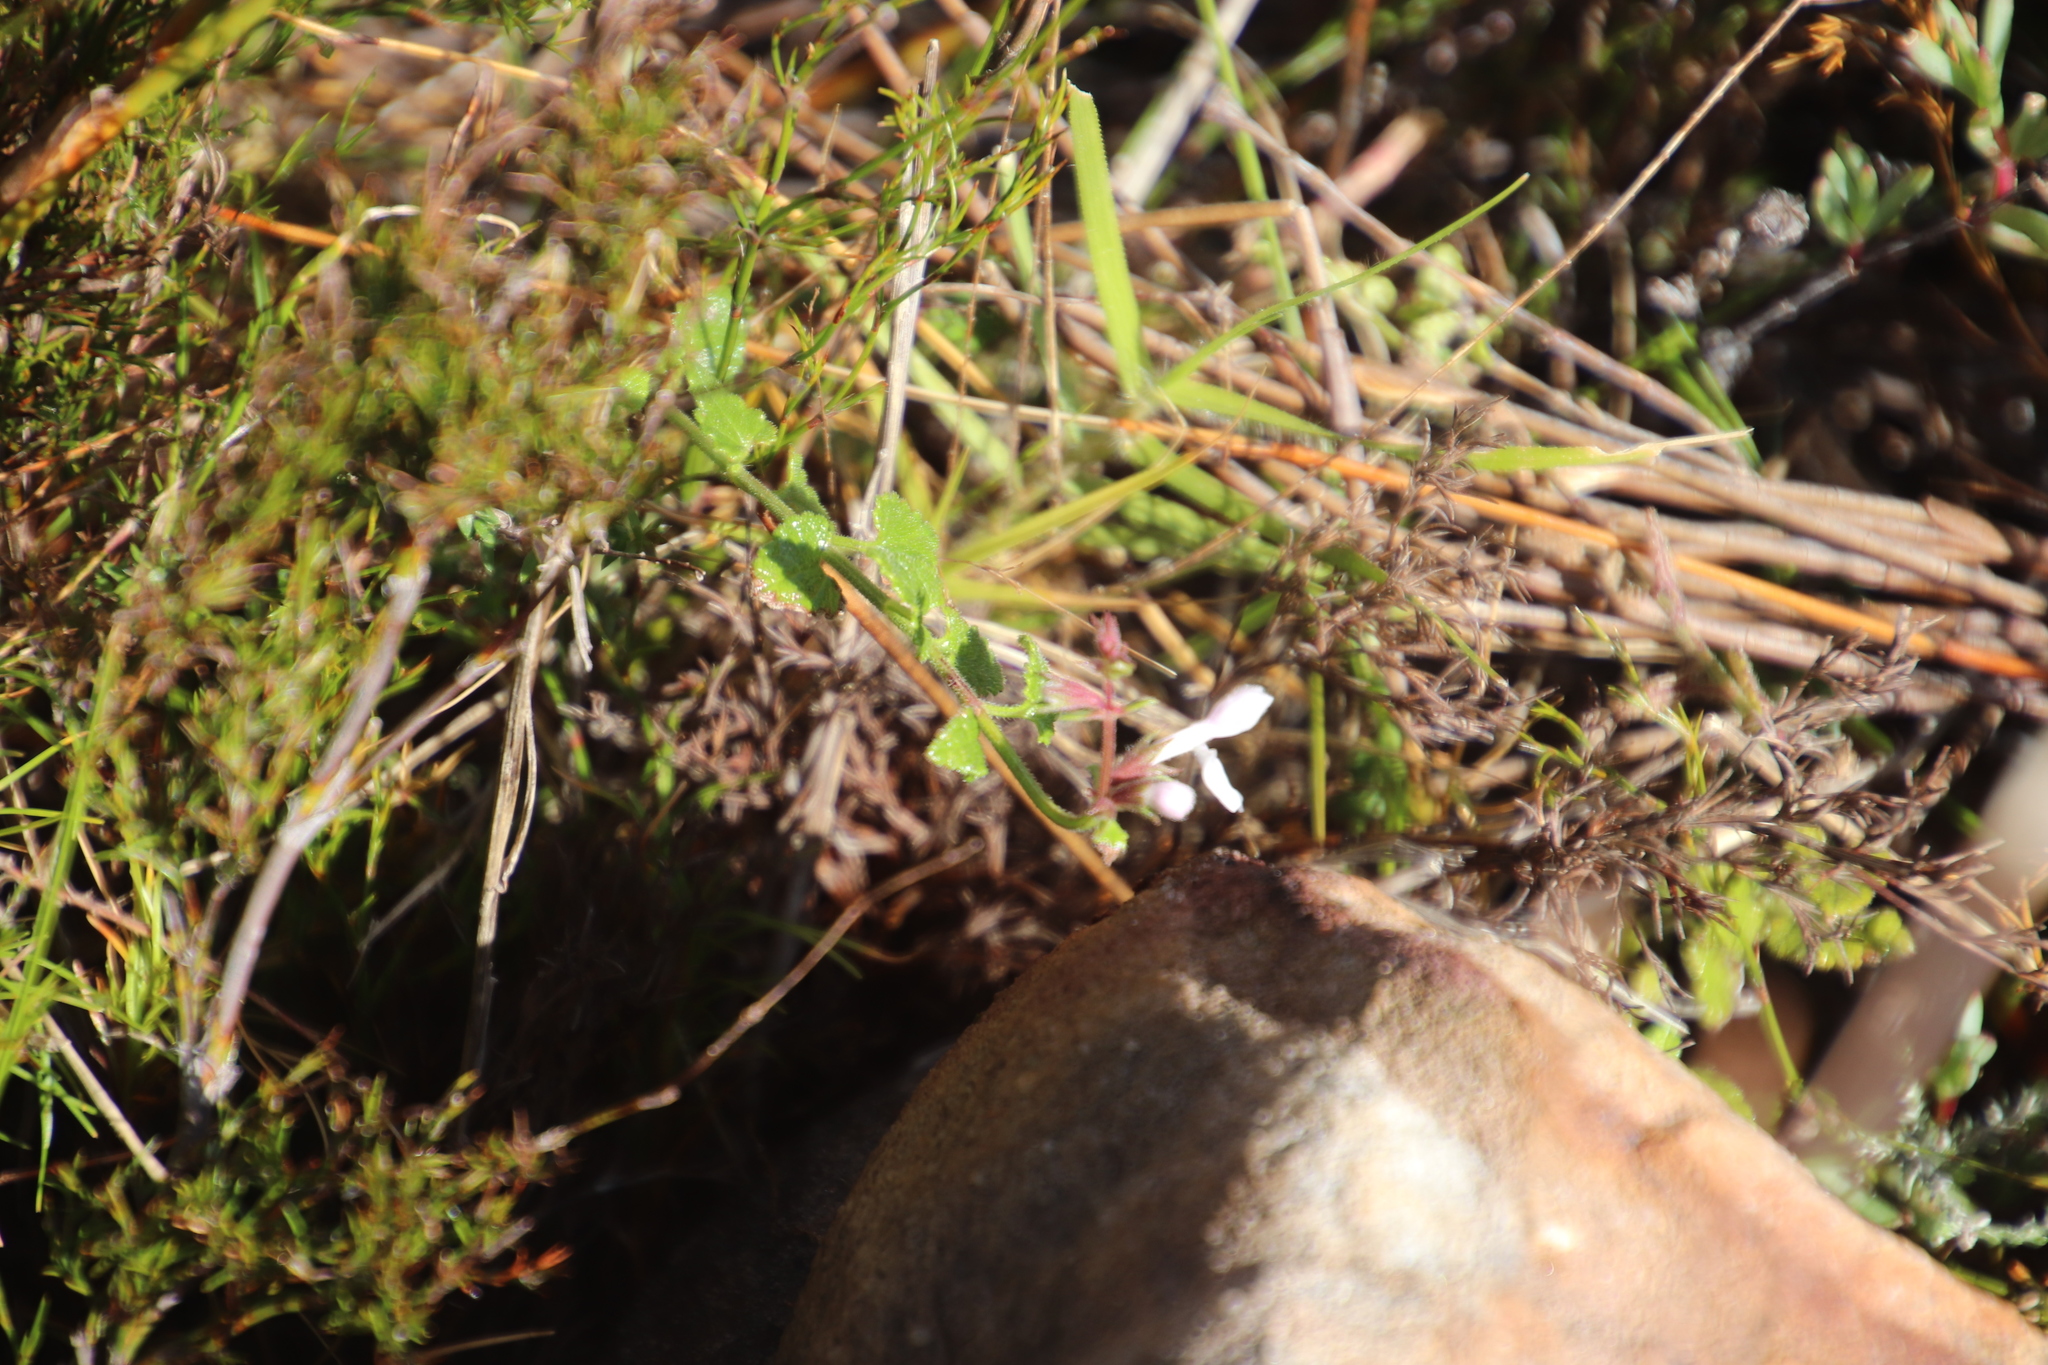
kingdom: Plantae
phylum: Tracheophyta
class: Magnoliopsida
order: Lamiales
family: Lamiaceae
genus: Stachys
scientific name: Stachys aethiopica
